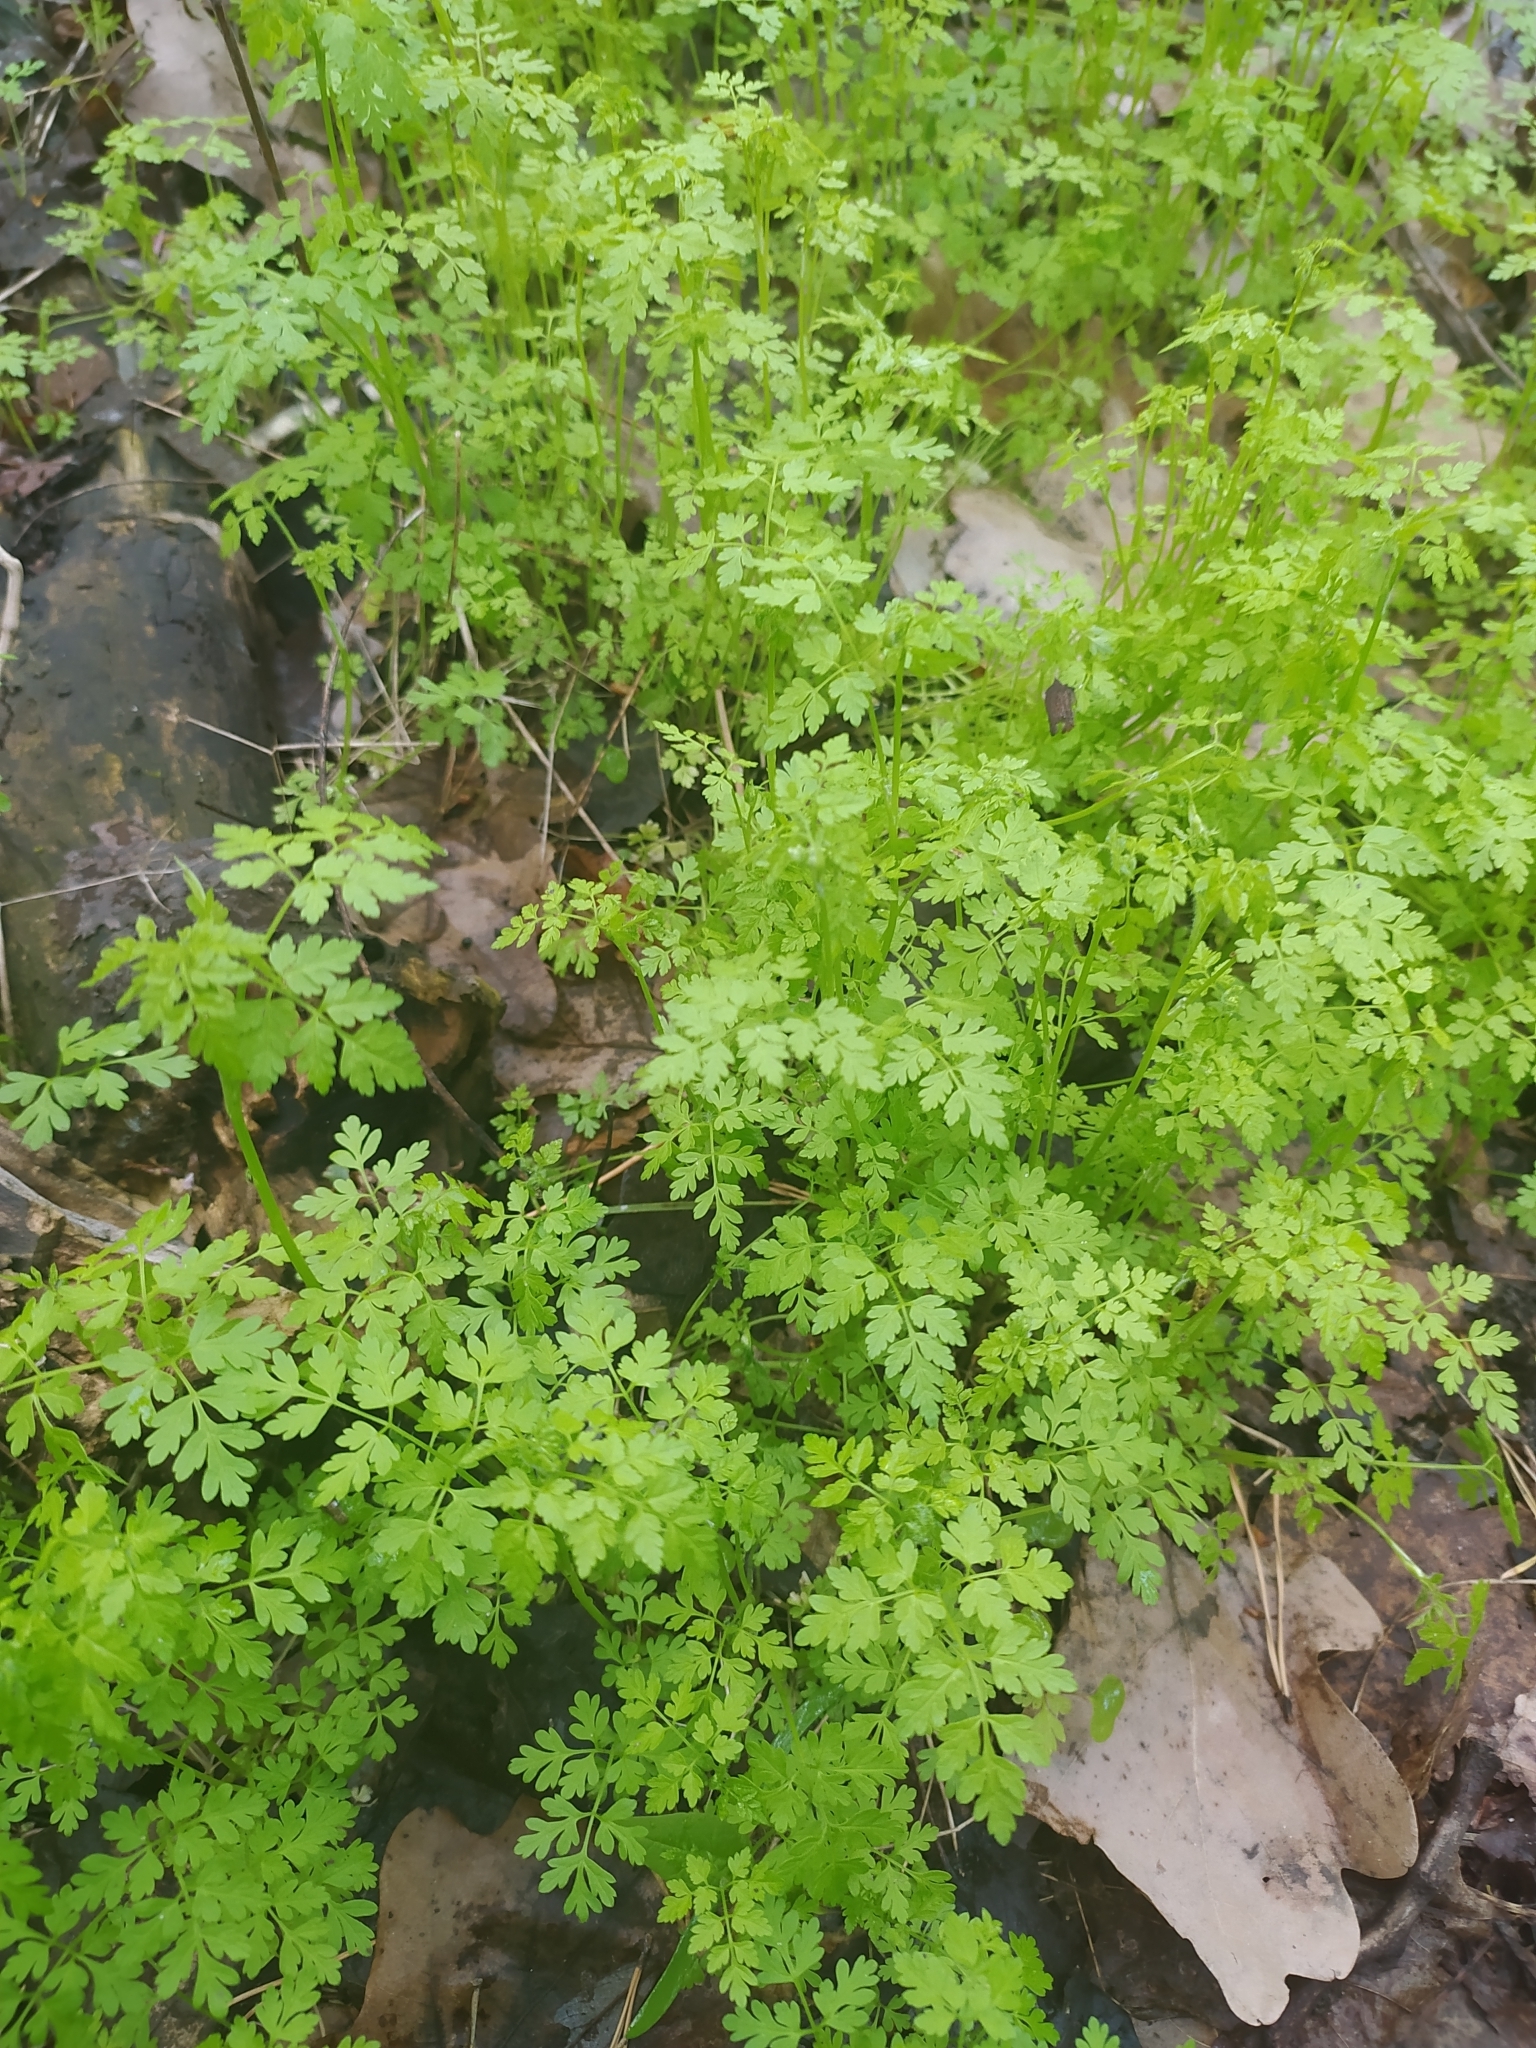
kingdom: Plantae
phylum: Tracheophyta
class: Magnoliopsida
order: Geraniales
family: Geraniaceae
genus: Geranium
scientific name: Geranium robertianum
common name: Herb-robert
